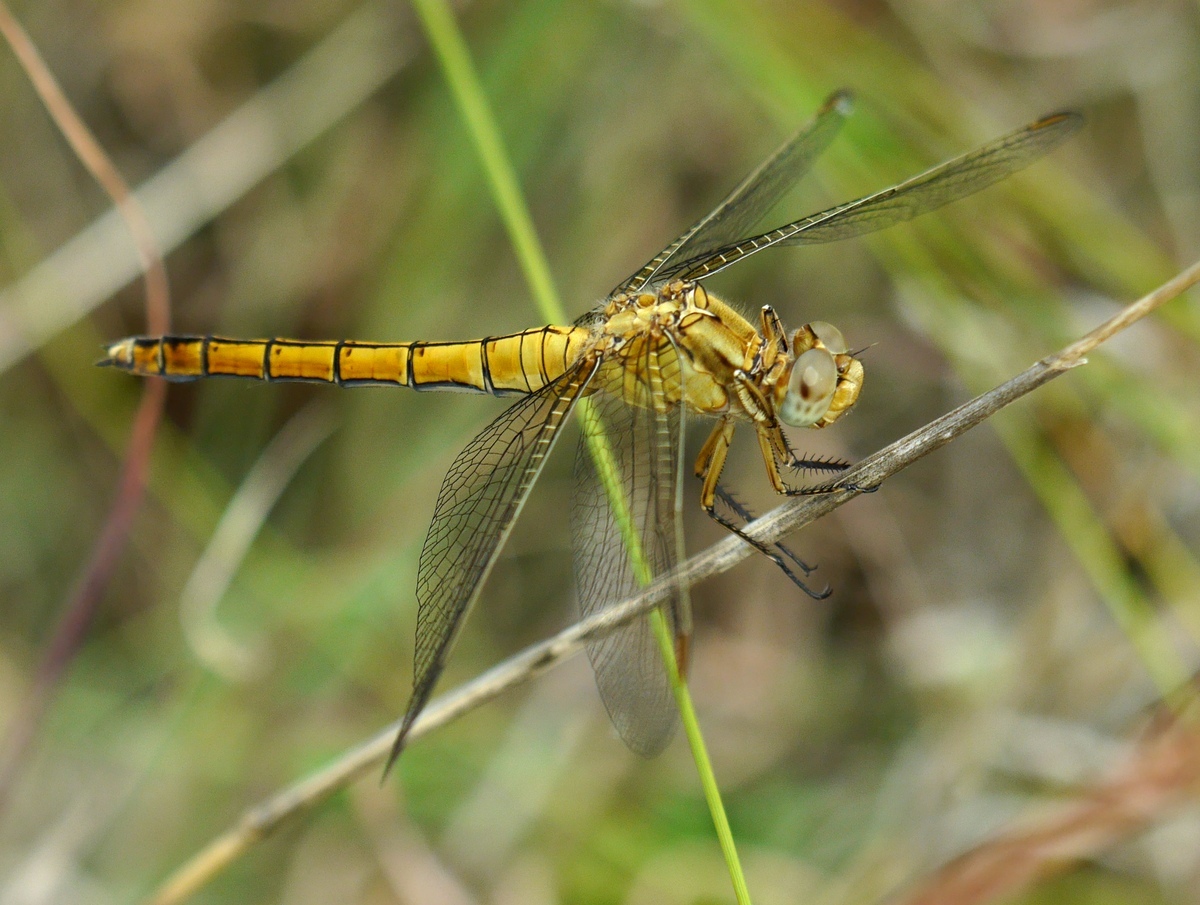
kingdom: Animalia
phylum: Arthropoda
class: Insecta
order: Odonata
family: Libellulidae
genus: Orthetrum
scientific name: Orthetrum coerulescens
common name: Keeled skimmer
